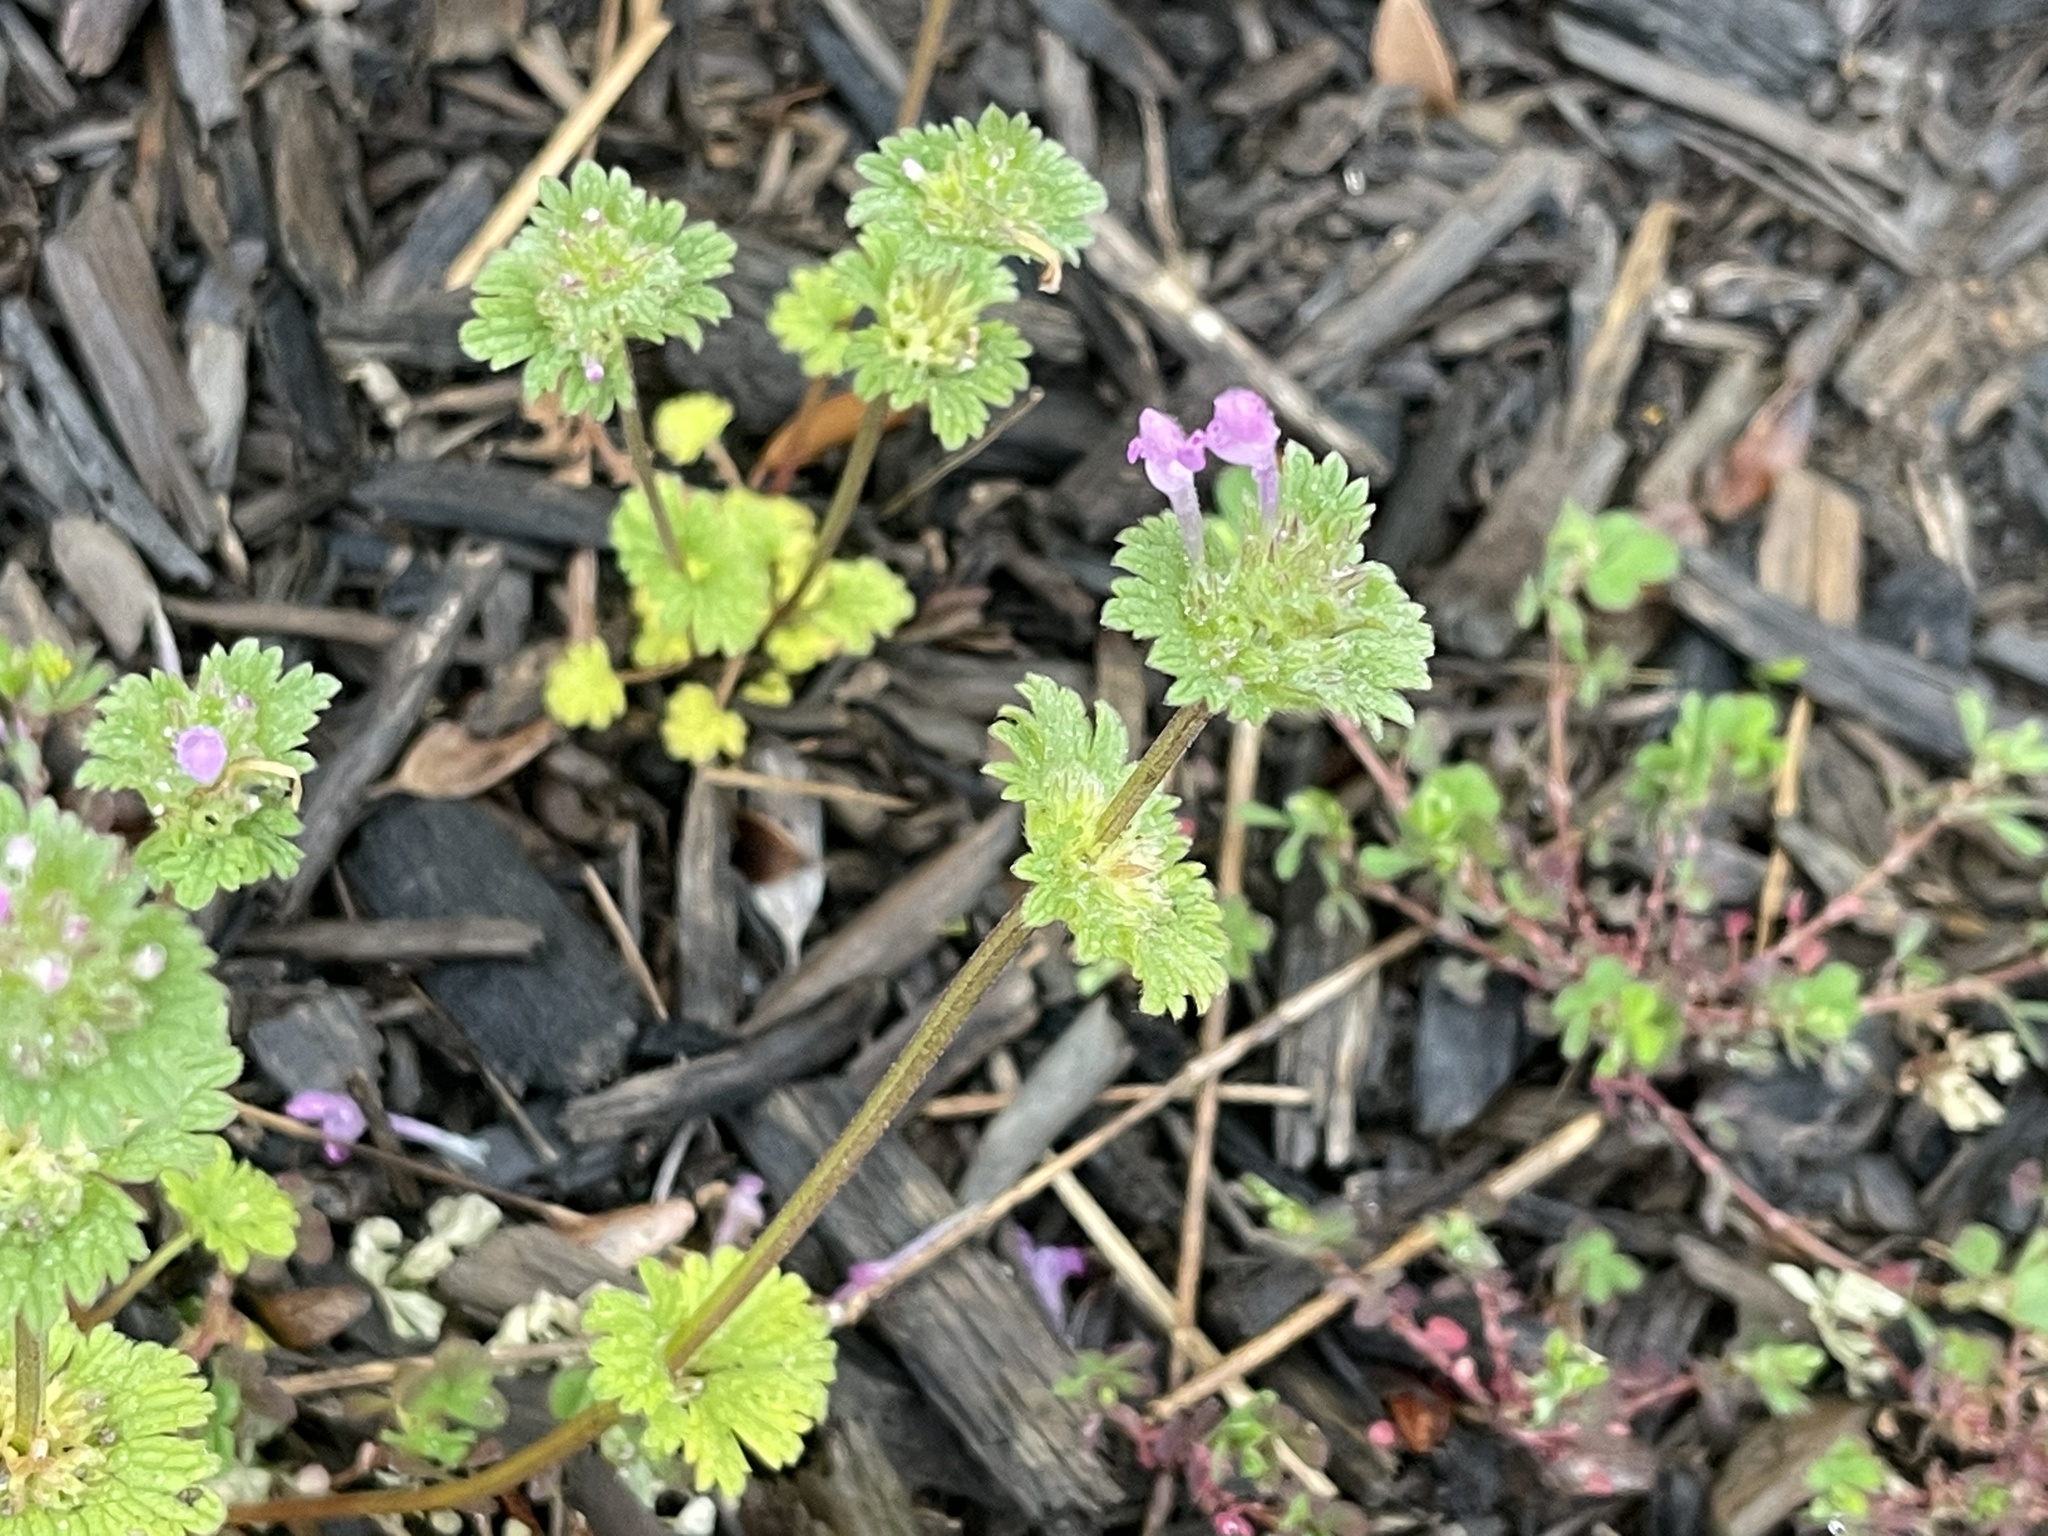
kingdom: Plantae
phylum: Tracheophyta
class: Magnoliopsida
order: Lamiales
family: Lamiaceae
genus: Lamium
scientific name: Lamium amplexicaule
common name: Henbit dead-nettle
